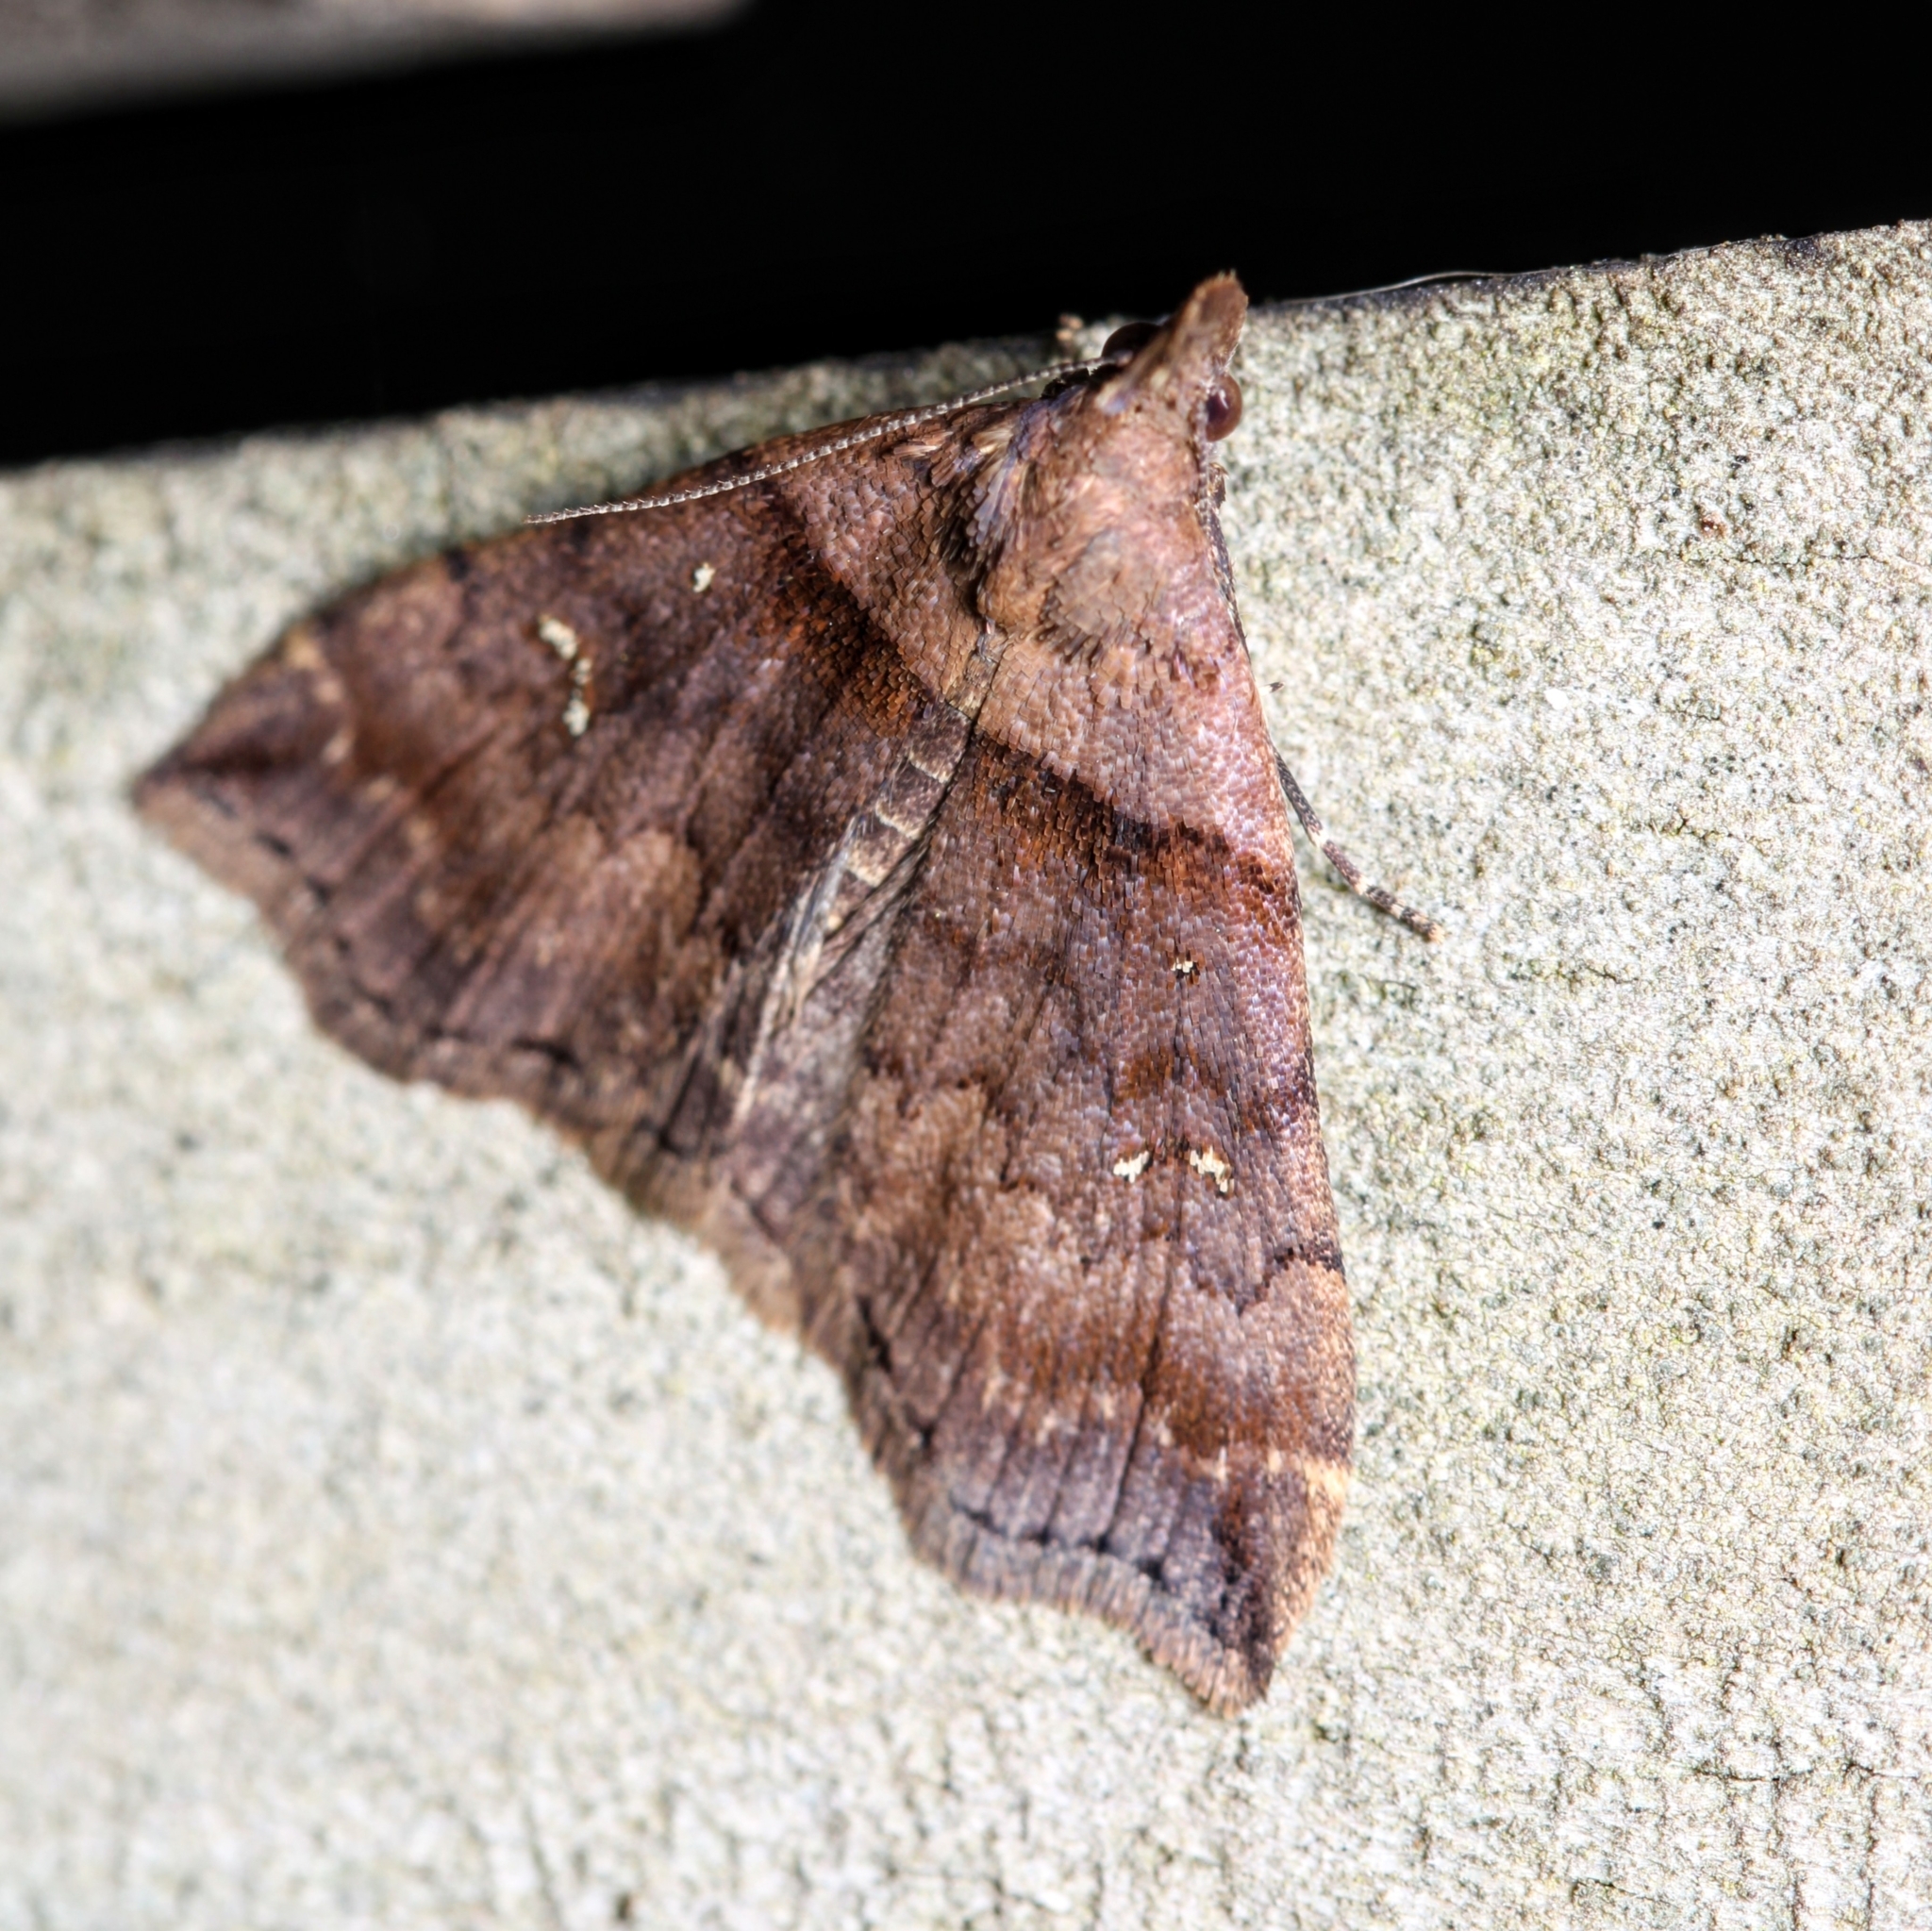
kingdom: Animalia
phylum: Arthropoda
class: Insecta
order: Lepidoptera
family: Erebidae
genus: Lascoria
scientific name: Lascoria ambigualis
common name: Ambiguous moth
